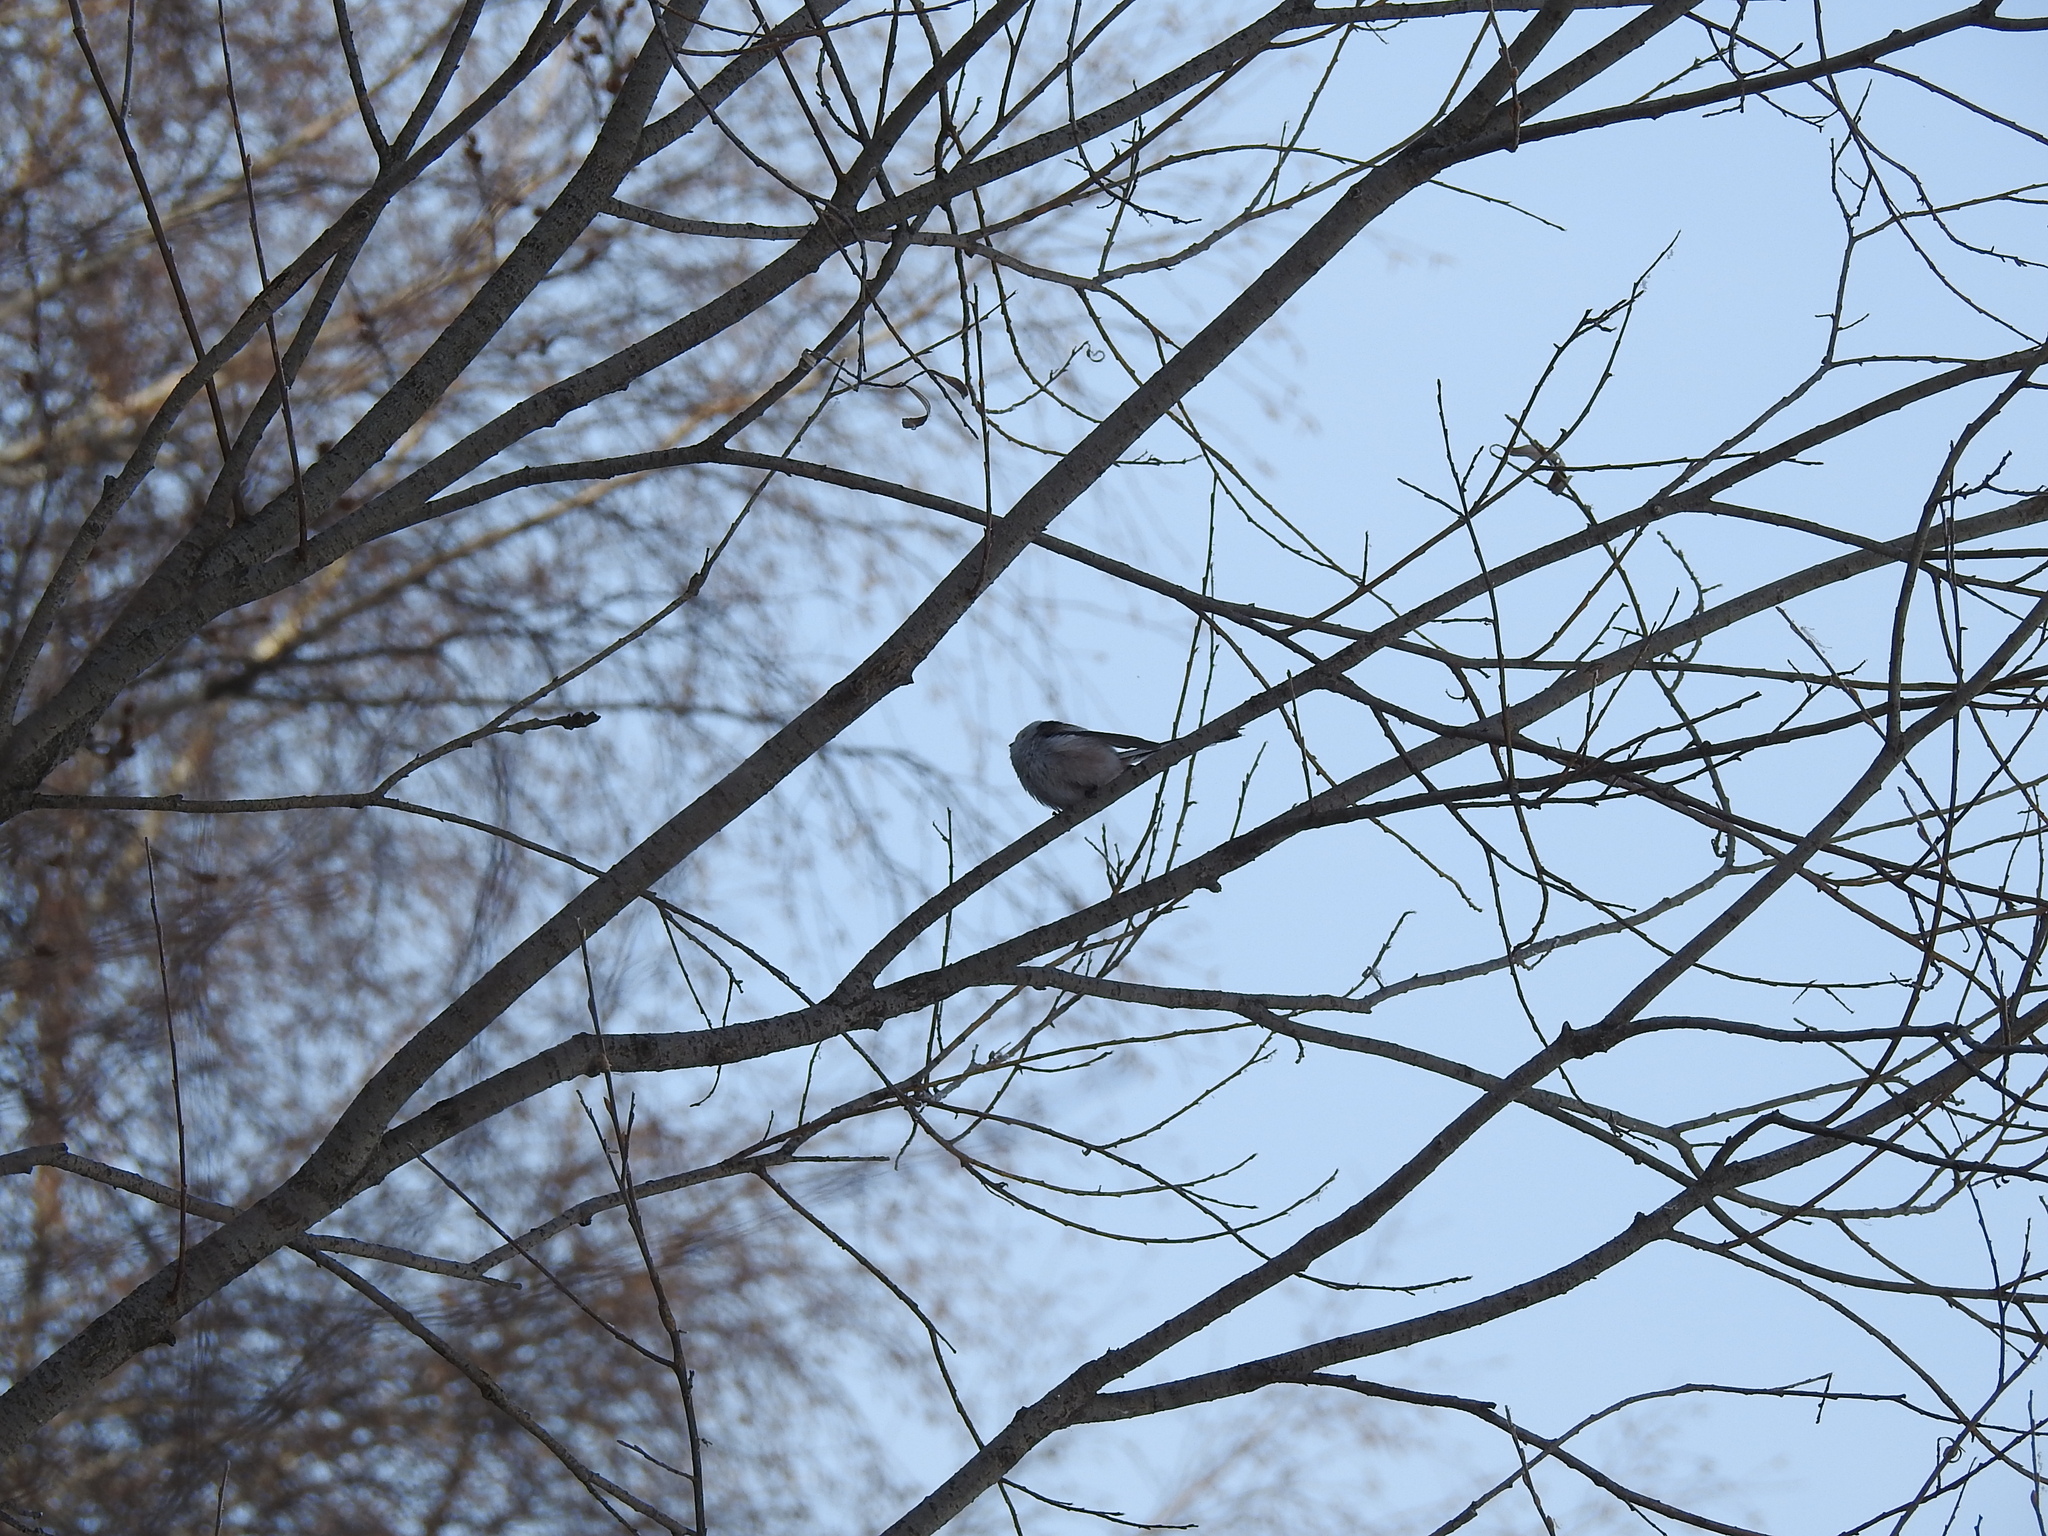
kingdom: Animalia
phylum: Chordata
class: Aves
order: Passeriformes
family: Aegithalidae
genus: Aegithalos
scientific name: Aegithalos caudatus
